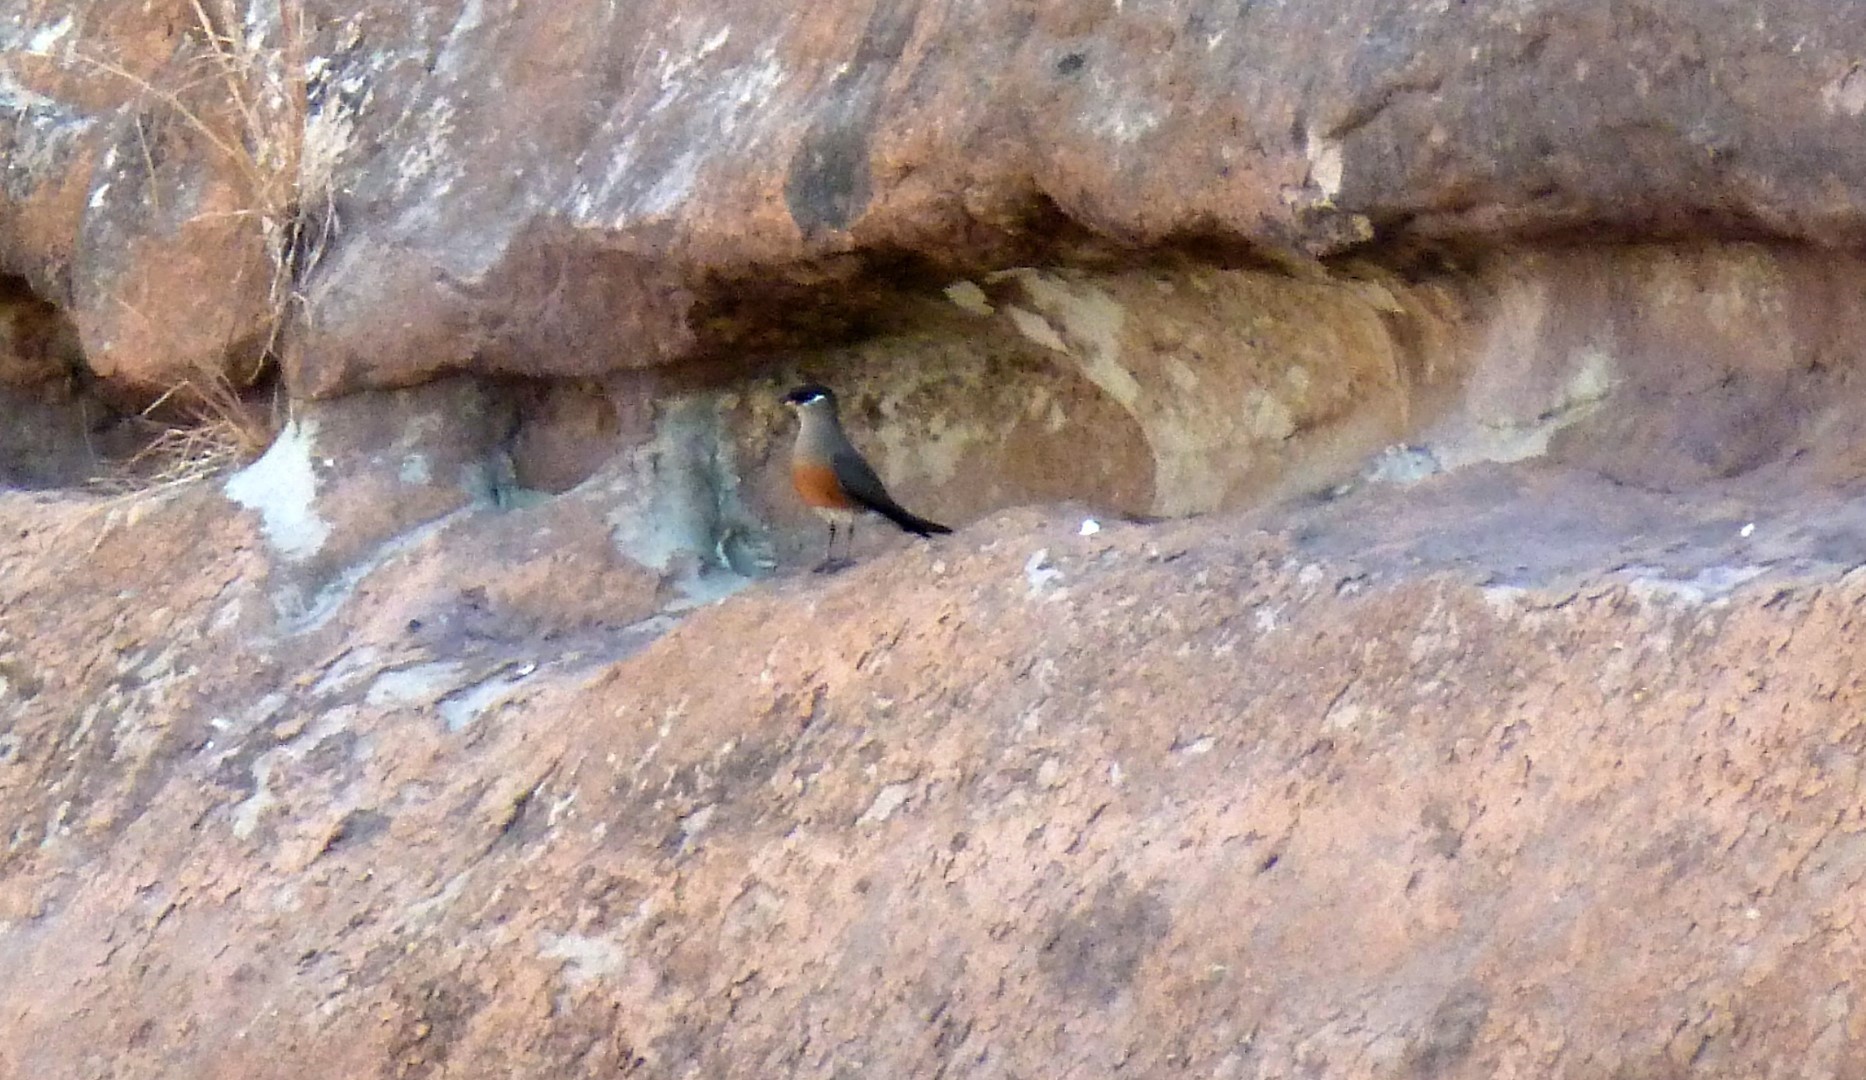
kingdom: Animalia
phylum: Chordata
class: Aves
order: Charadriiformes
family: Glareolidae
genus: Glareola
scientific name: Glareola ocularis
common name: Madagascar pratincole
